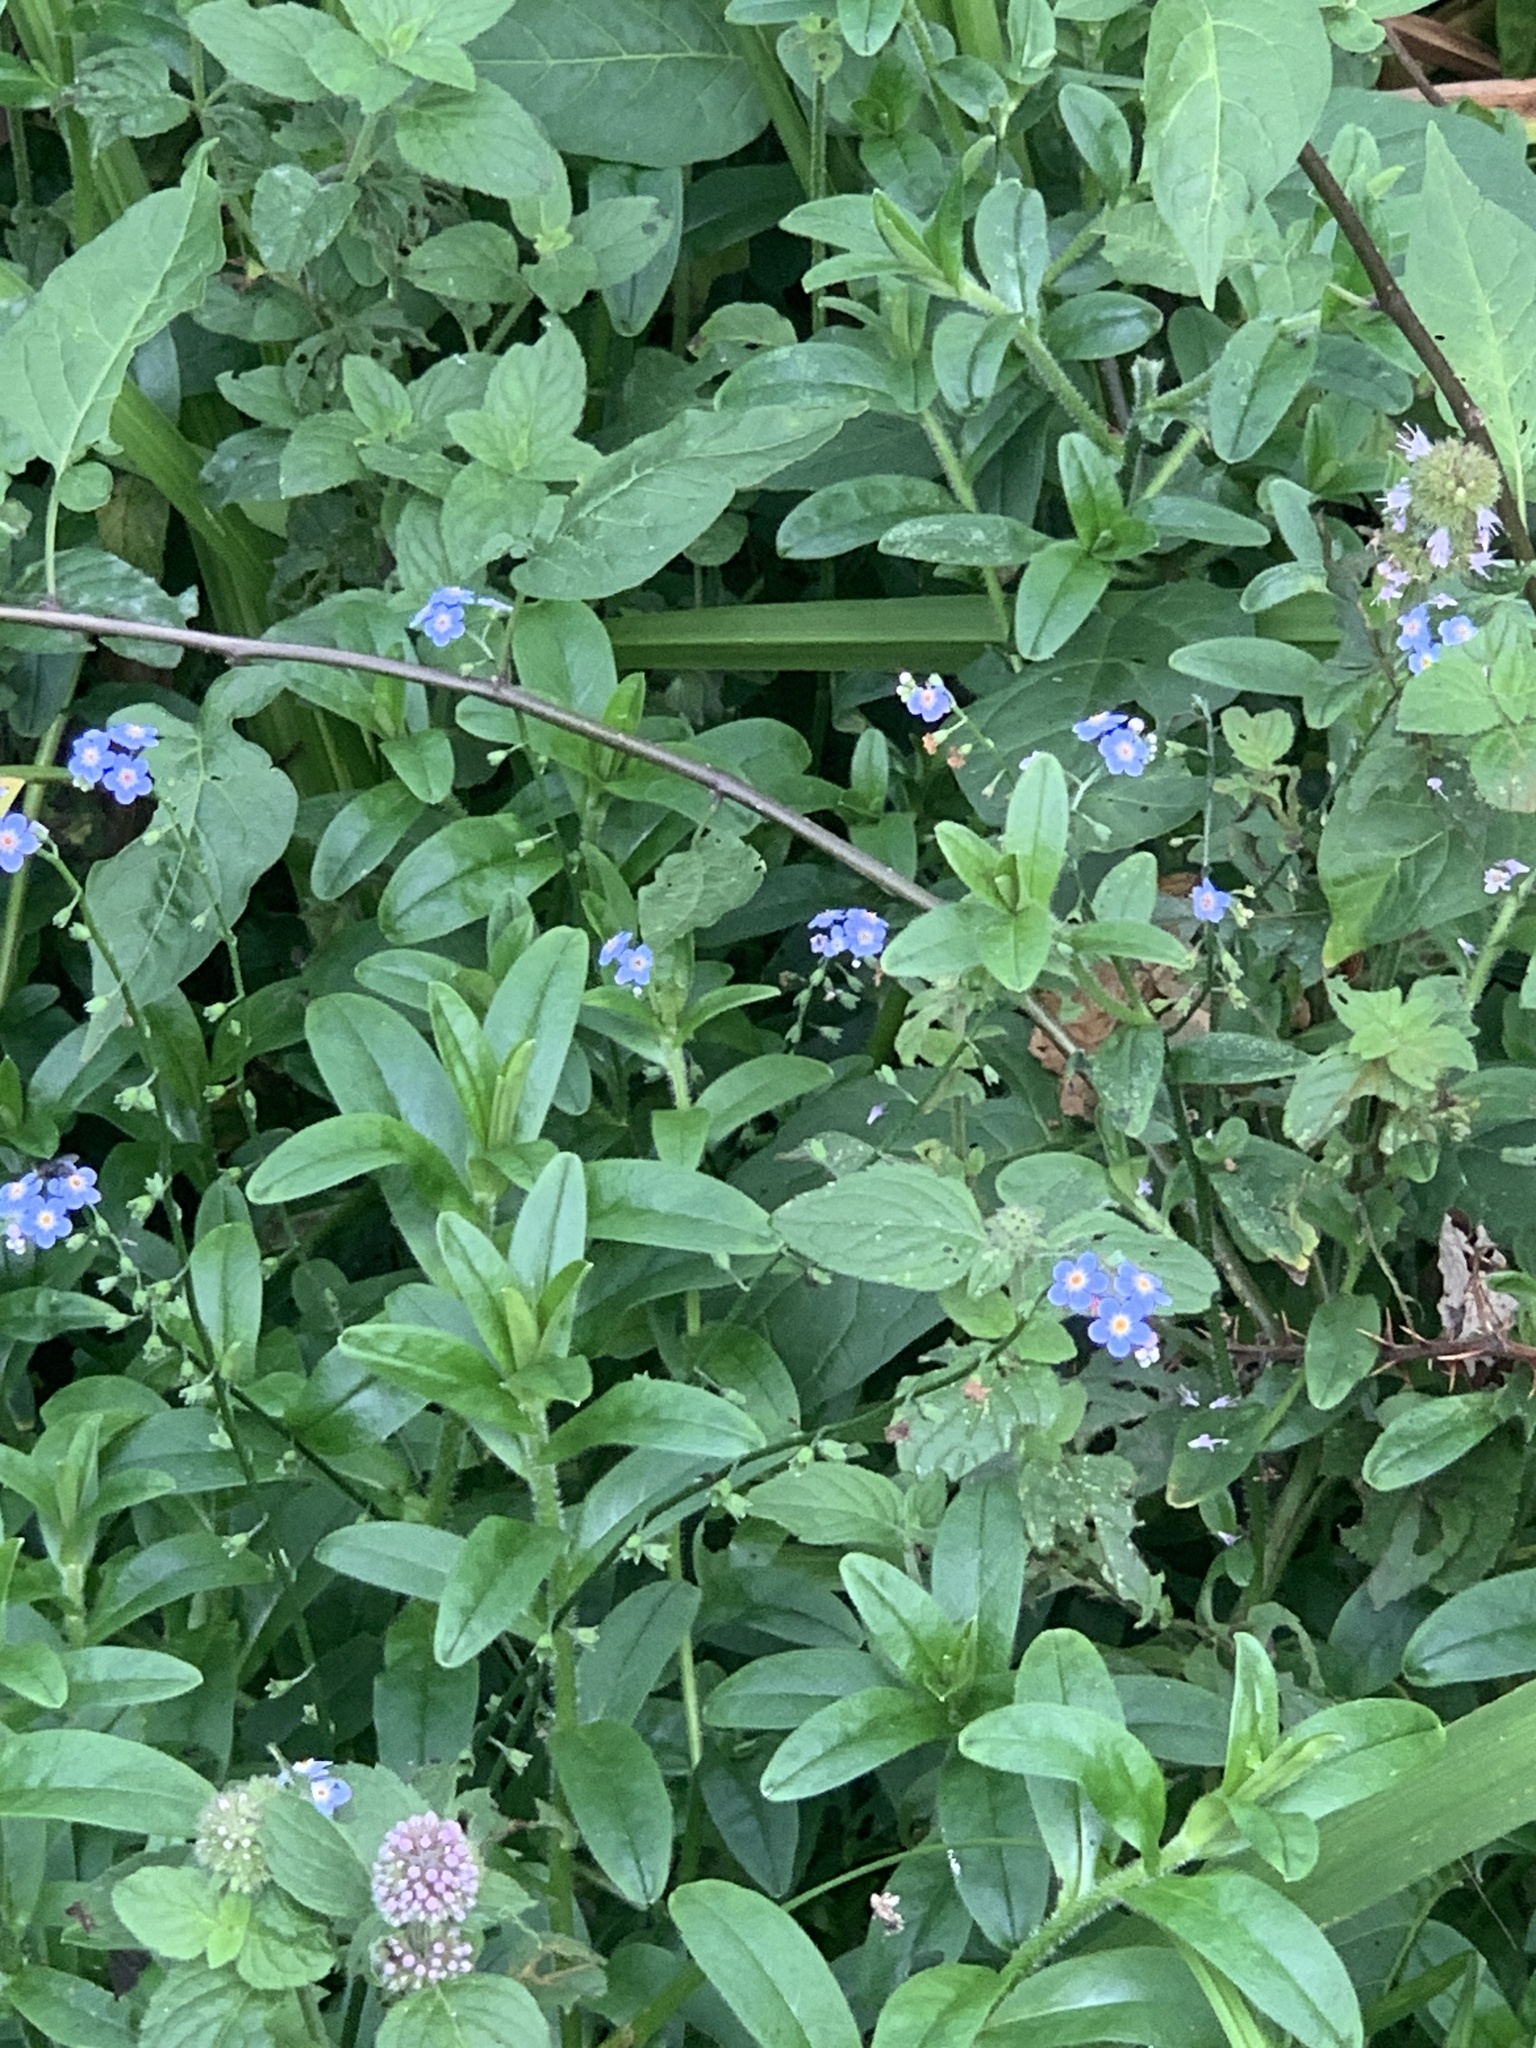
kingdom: Plantae
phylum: Tracheophyta
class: Magnoliopsida
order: Boraginales
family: Boraginaceae
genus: Myosotis
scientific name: Myosotis scorpioides
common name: Water forget-me-not
